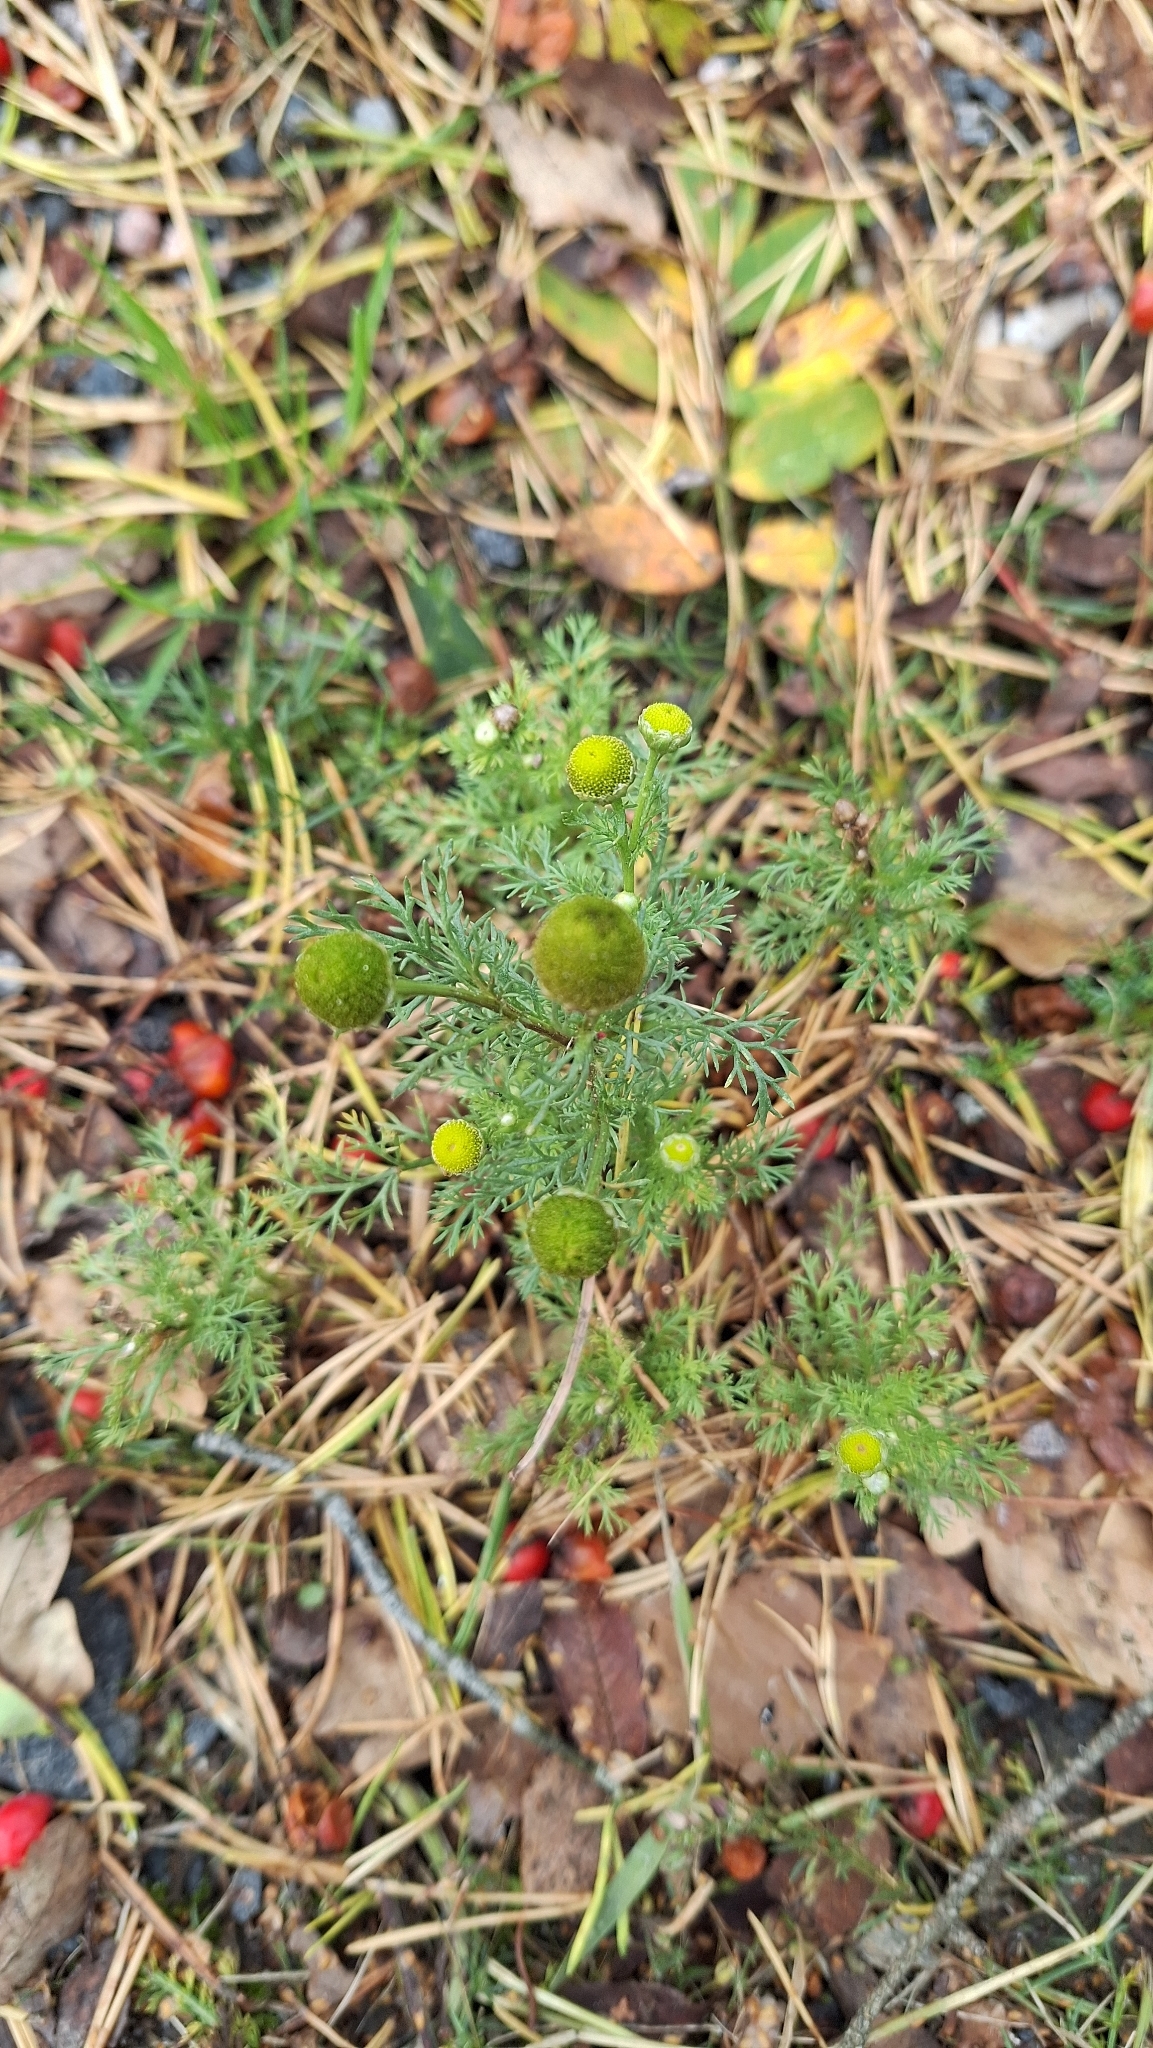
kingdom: Plantae
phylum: Tracheophyta
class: Magnoliopsida
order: Asterales
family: Asteraceae
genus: Matricaria
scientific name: Matricaria discoidea
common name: Disc mayweed
